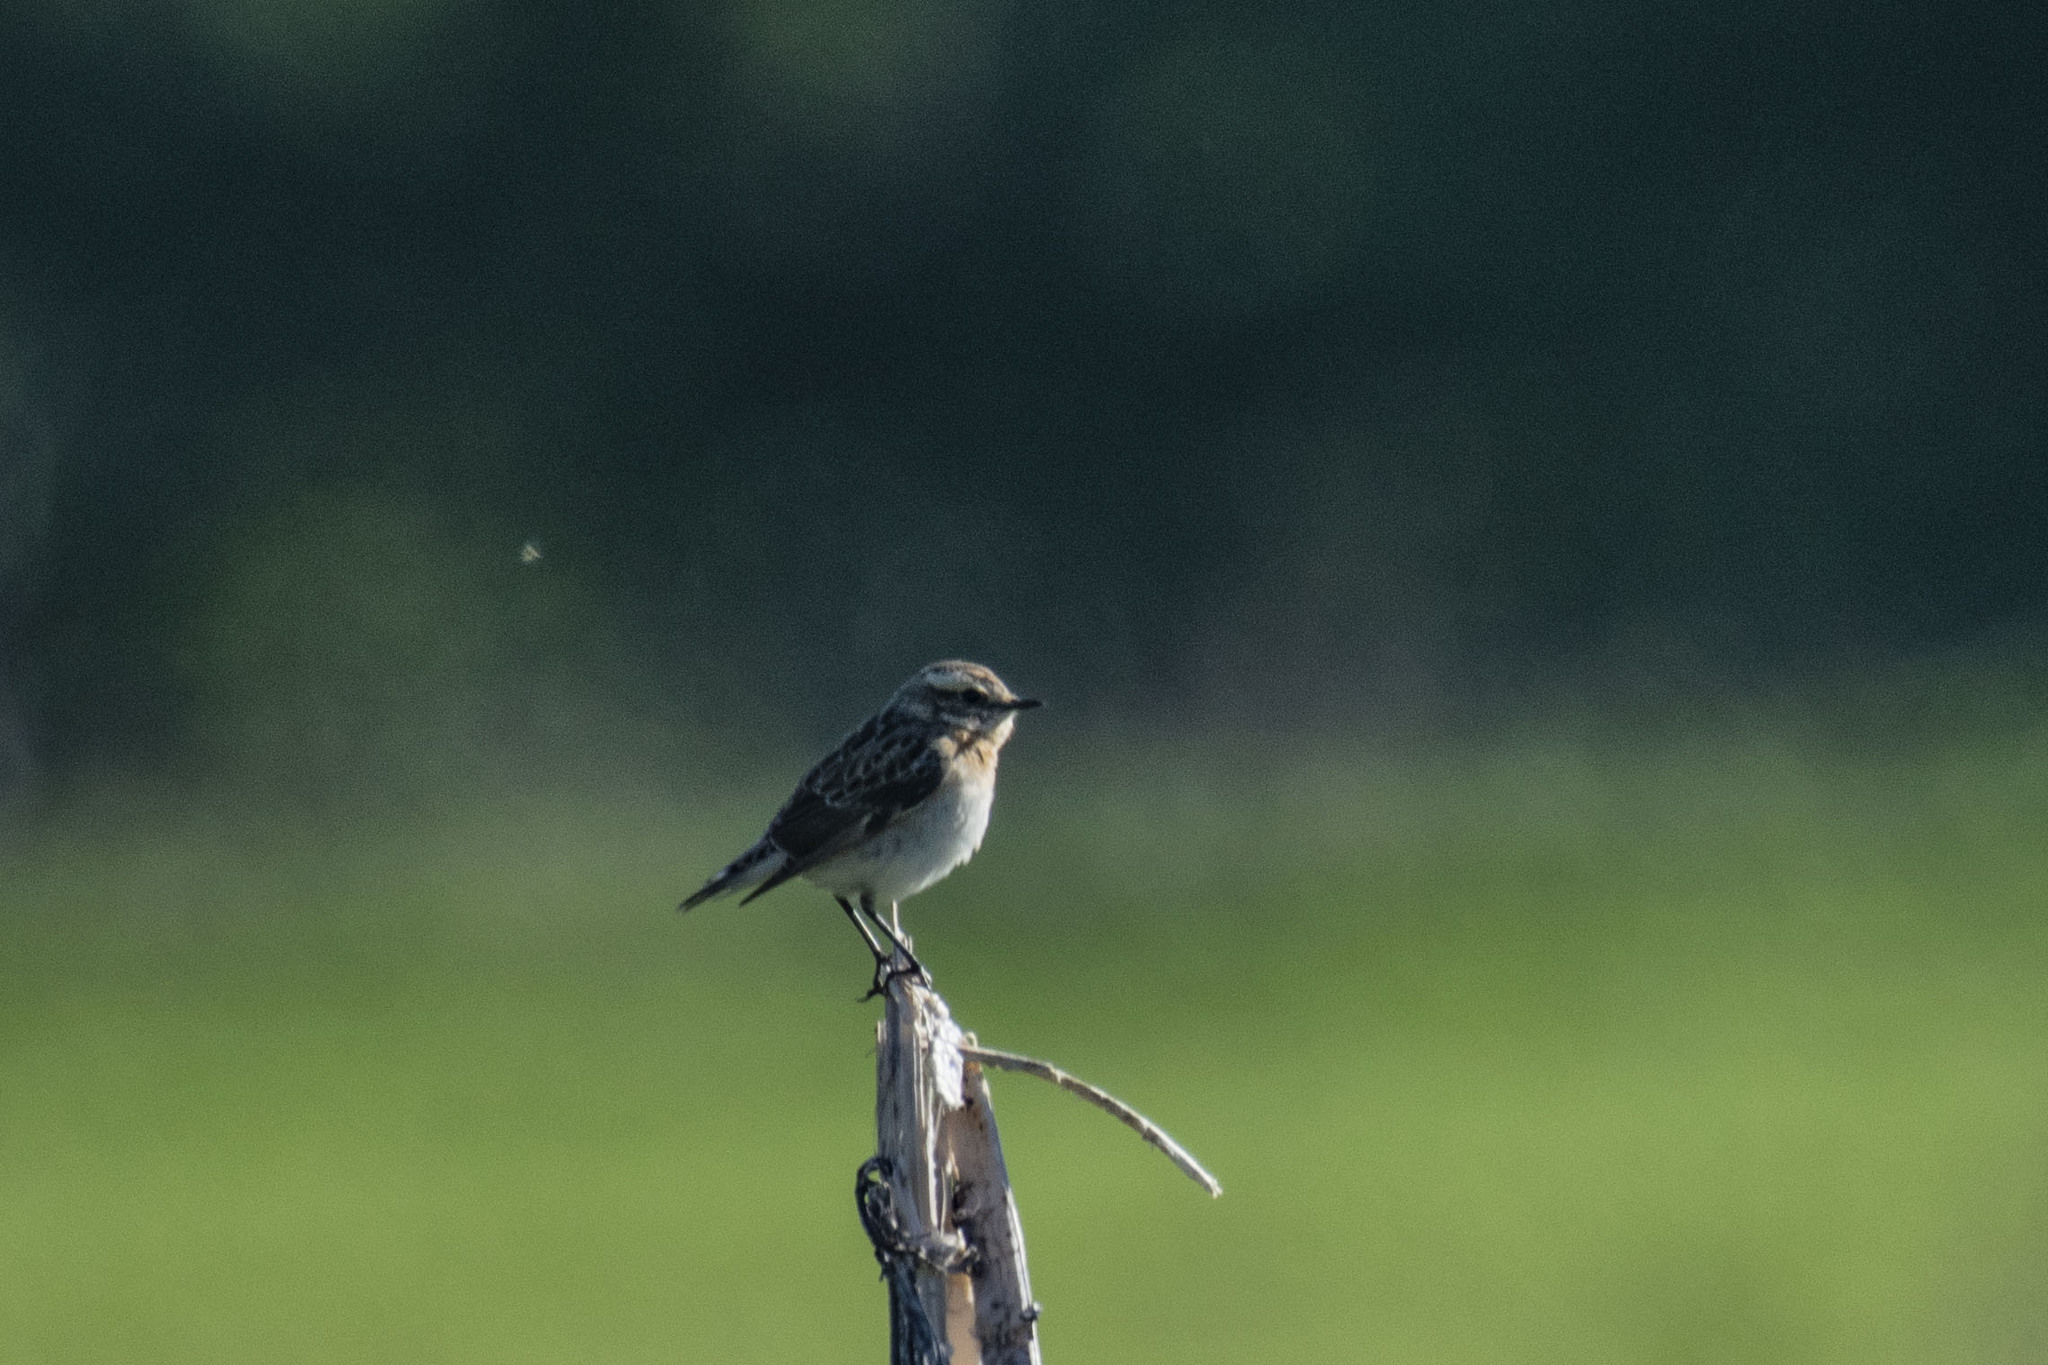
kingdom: Animalia
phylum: Chordata
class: Aves
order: Passeriformes
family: Muscicapidae
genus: Saxicola
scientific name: Saxicola rubetra
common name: Whinchat
